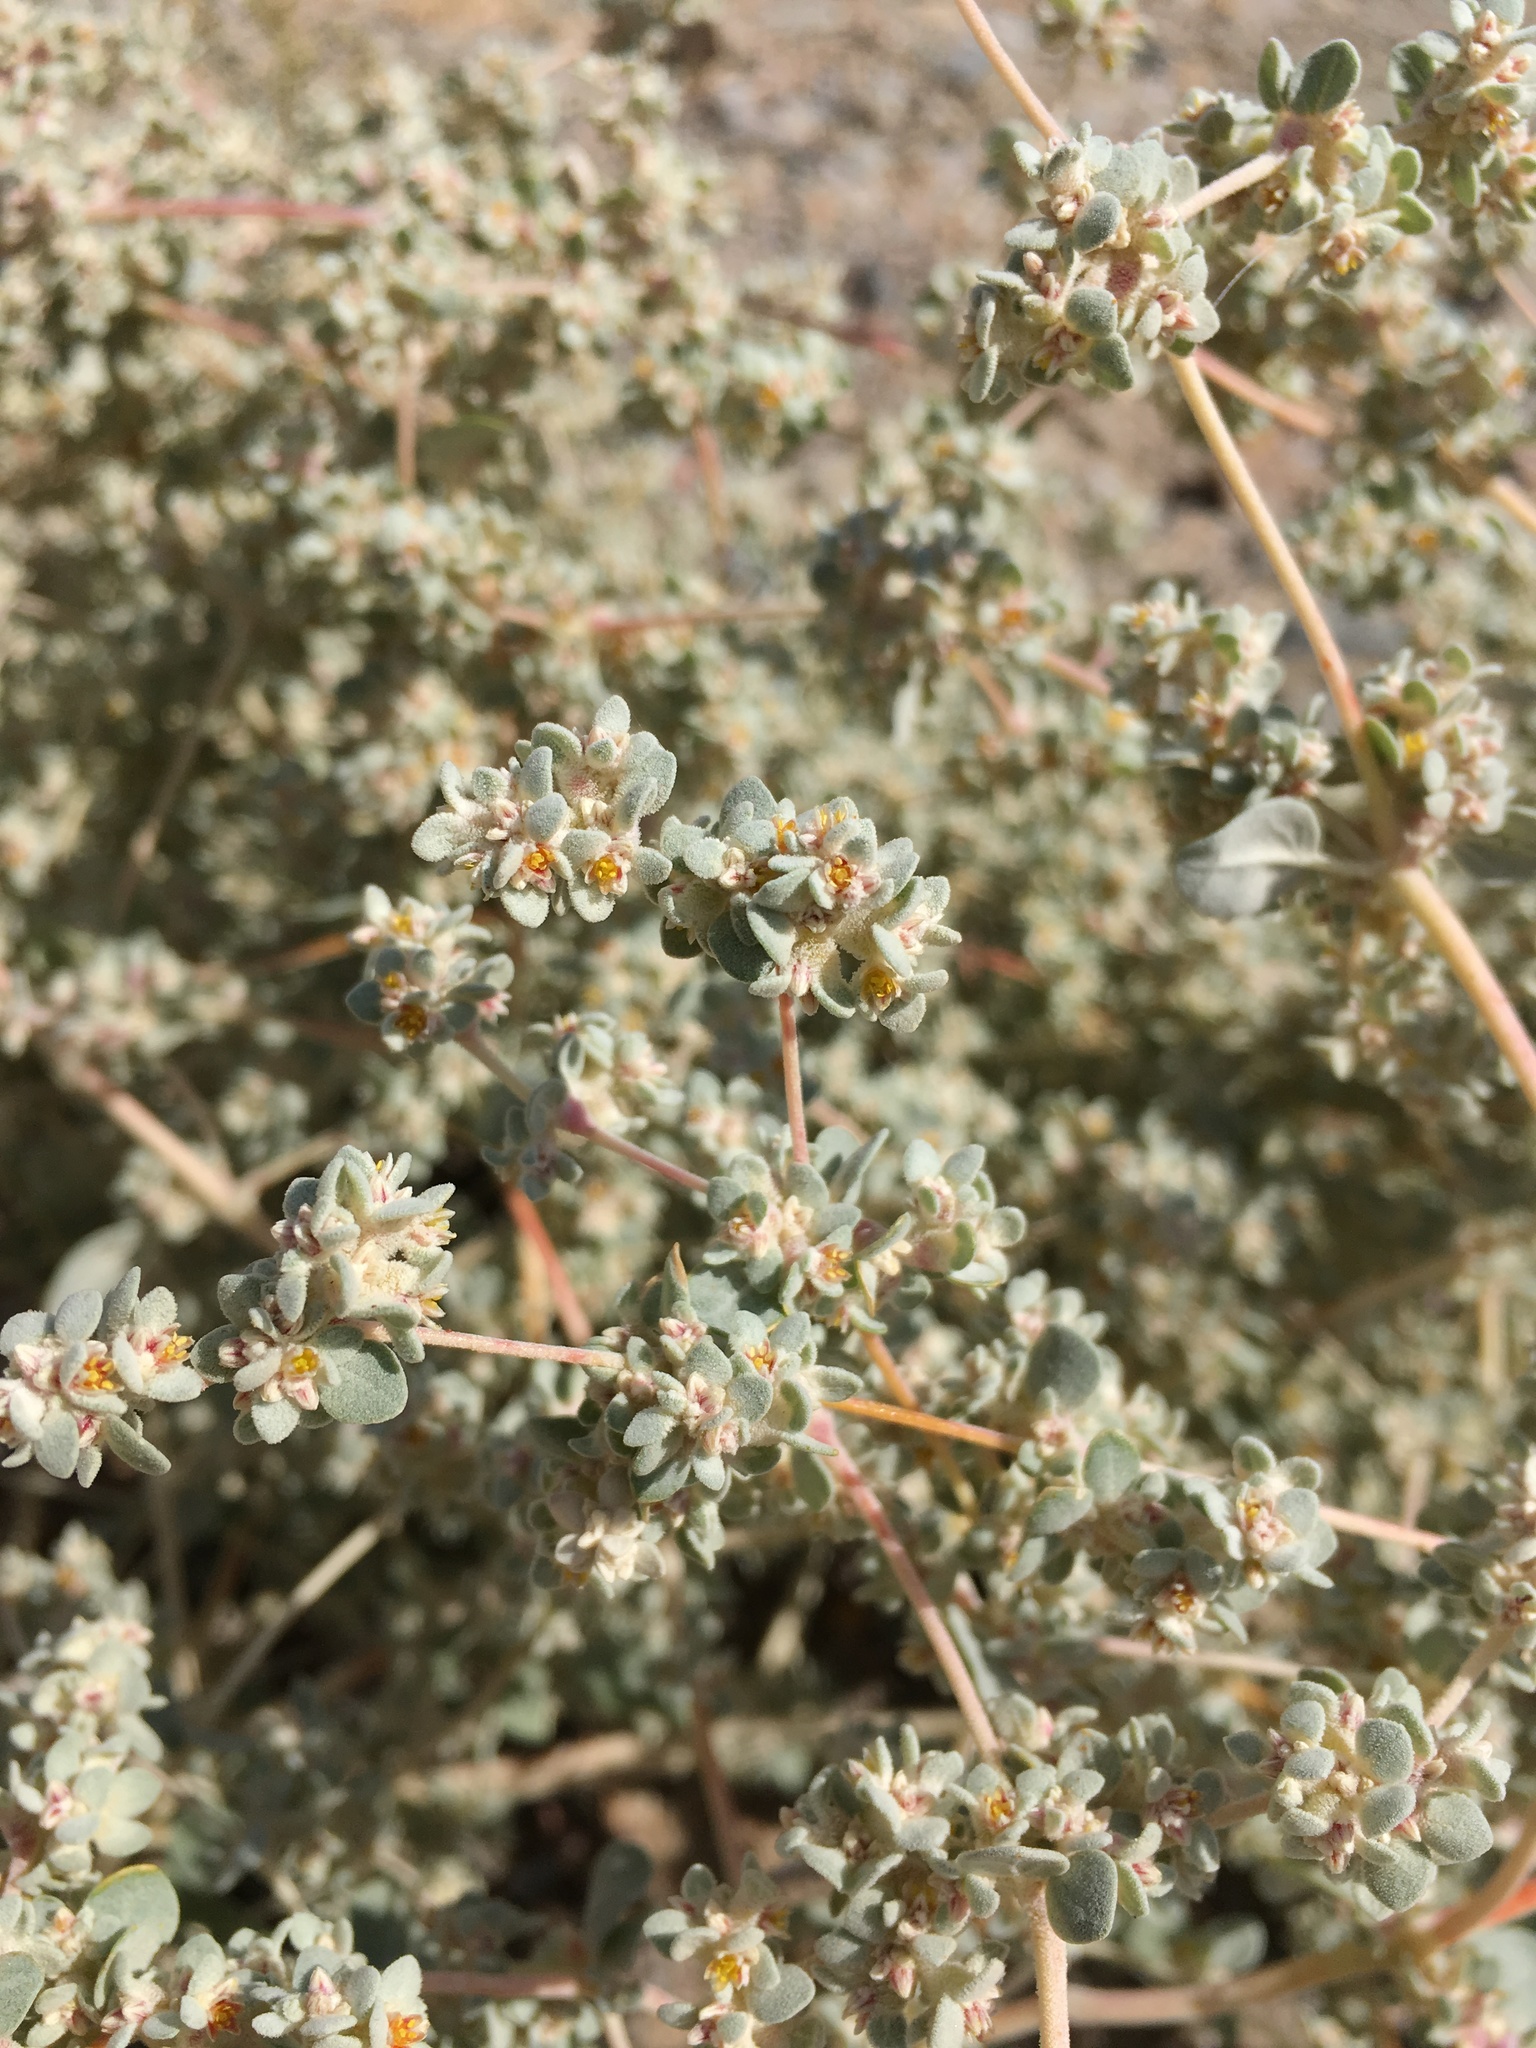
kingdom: Plantae
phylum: Tracheophyta
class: Magnoliopsida
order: Caryophyllales
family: Amaranthaceae
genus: Tidestromia
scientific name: Tidestromia suffruticosa
